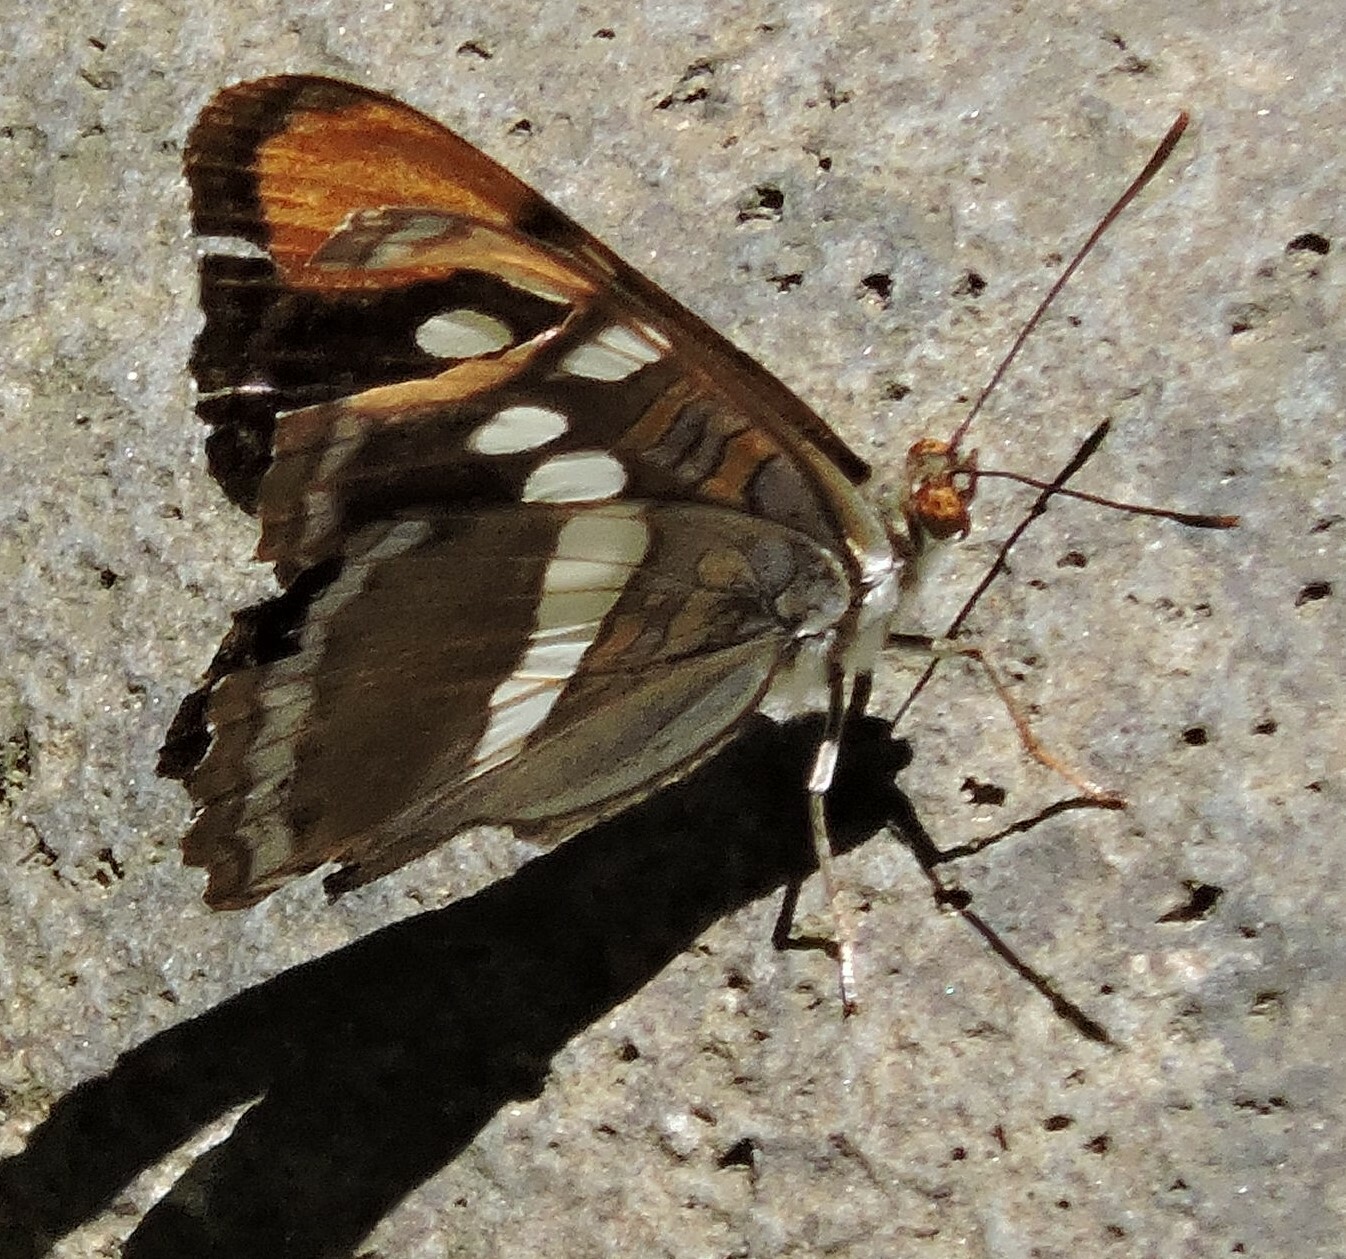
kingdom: Animalia
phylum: Arthropoda
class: Insecta
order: Lepidoptera
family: Nymphalidae
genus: Limenitis
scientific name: Limenitis bredowii
